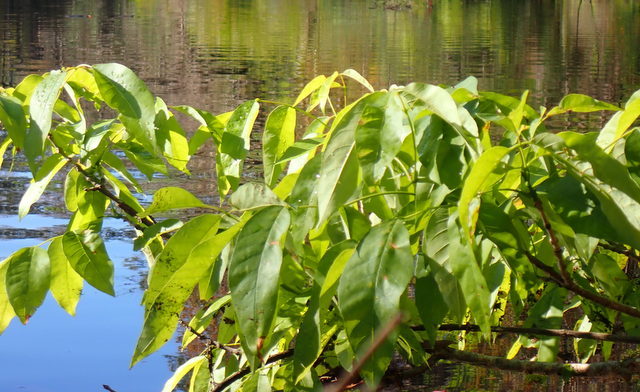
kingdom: Plantae
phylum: Tracheophyta
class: Magnoliopsida
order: Lamiales
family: Oleaceae
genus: Fraxinus
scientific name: Fraxinus caroliniana
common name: Carolina ash
